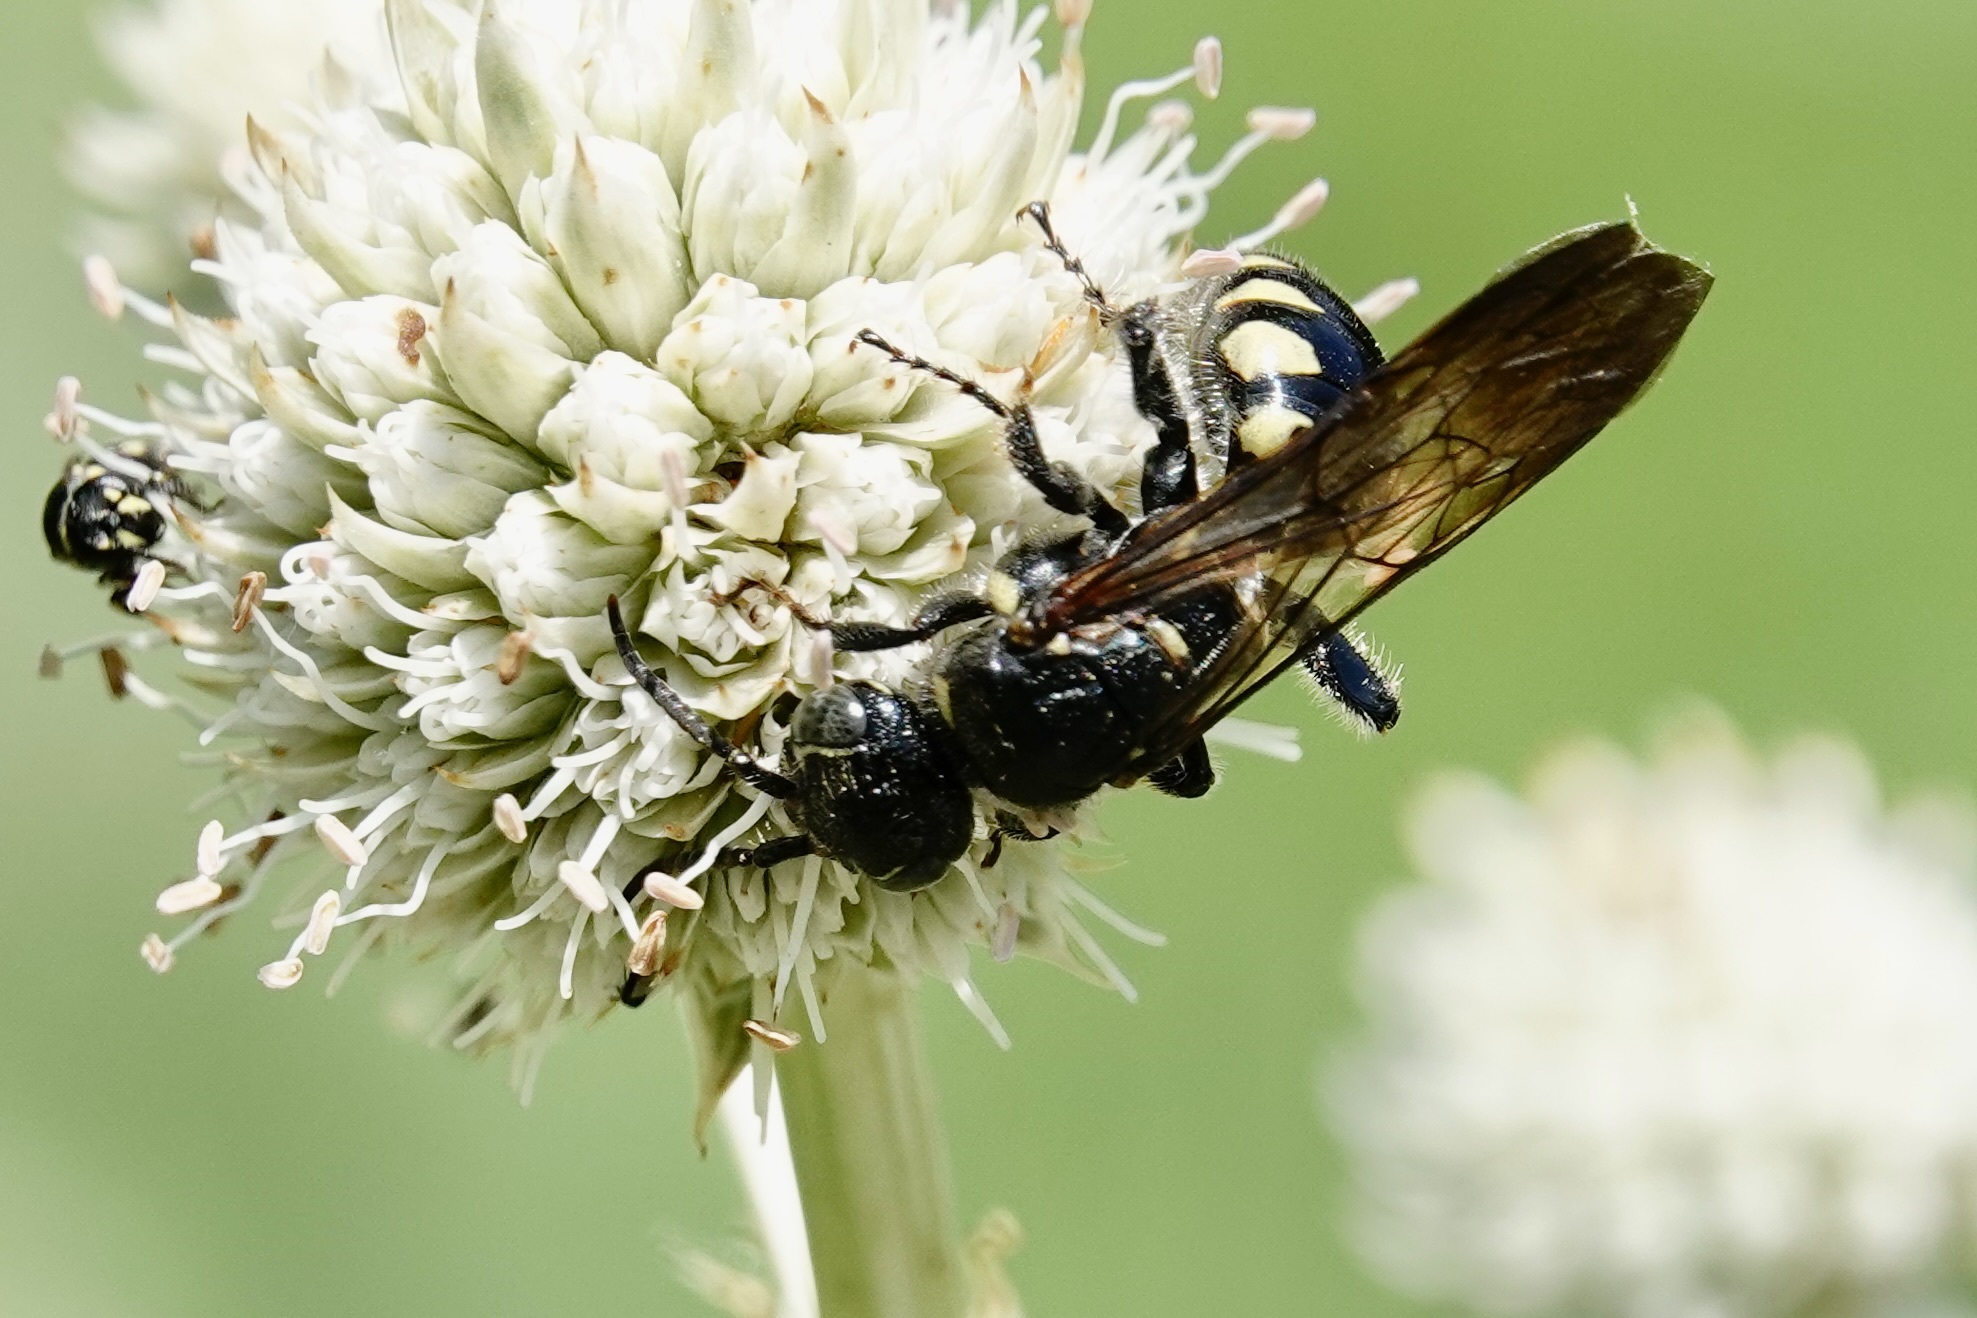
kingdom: Animalia
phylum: Arthropoda
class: Insecta
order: Hymenoptera
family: Tiphiidae
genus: Myzinum
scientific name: Myzinum obscurum
